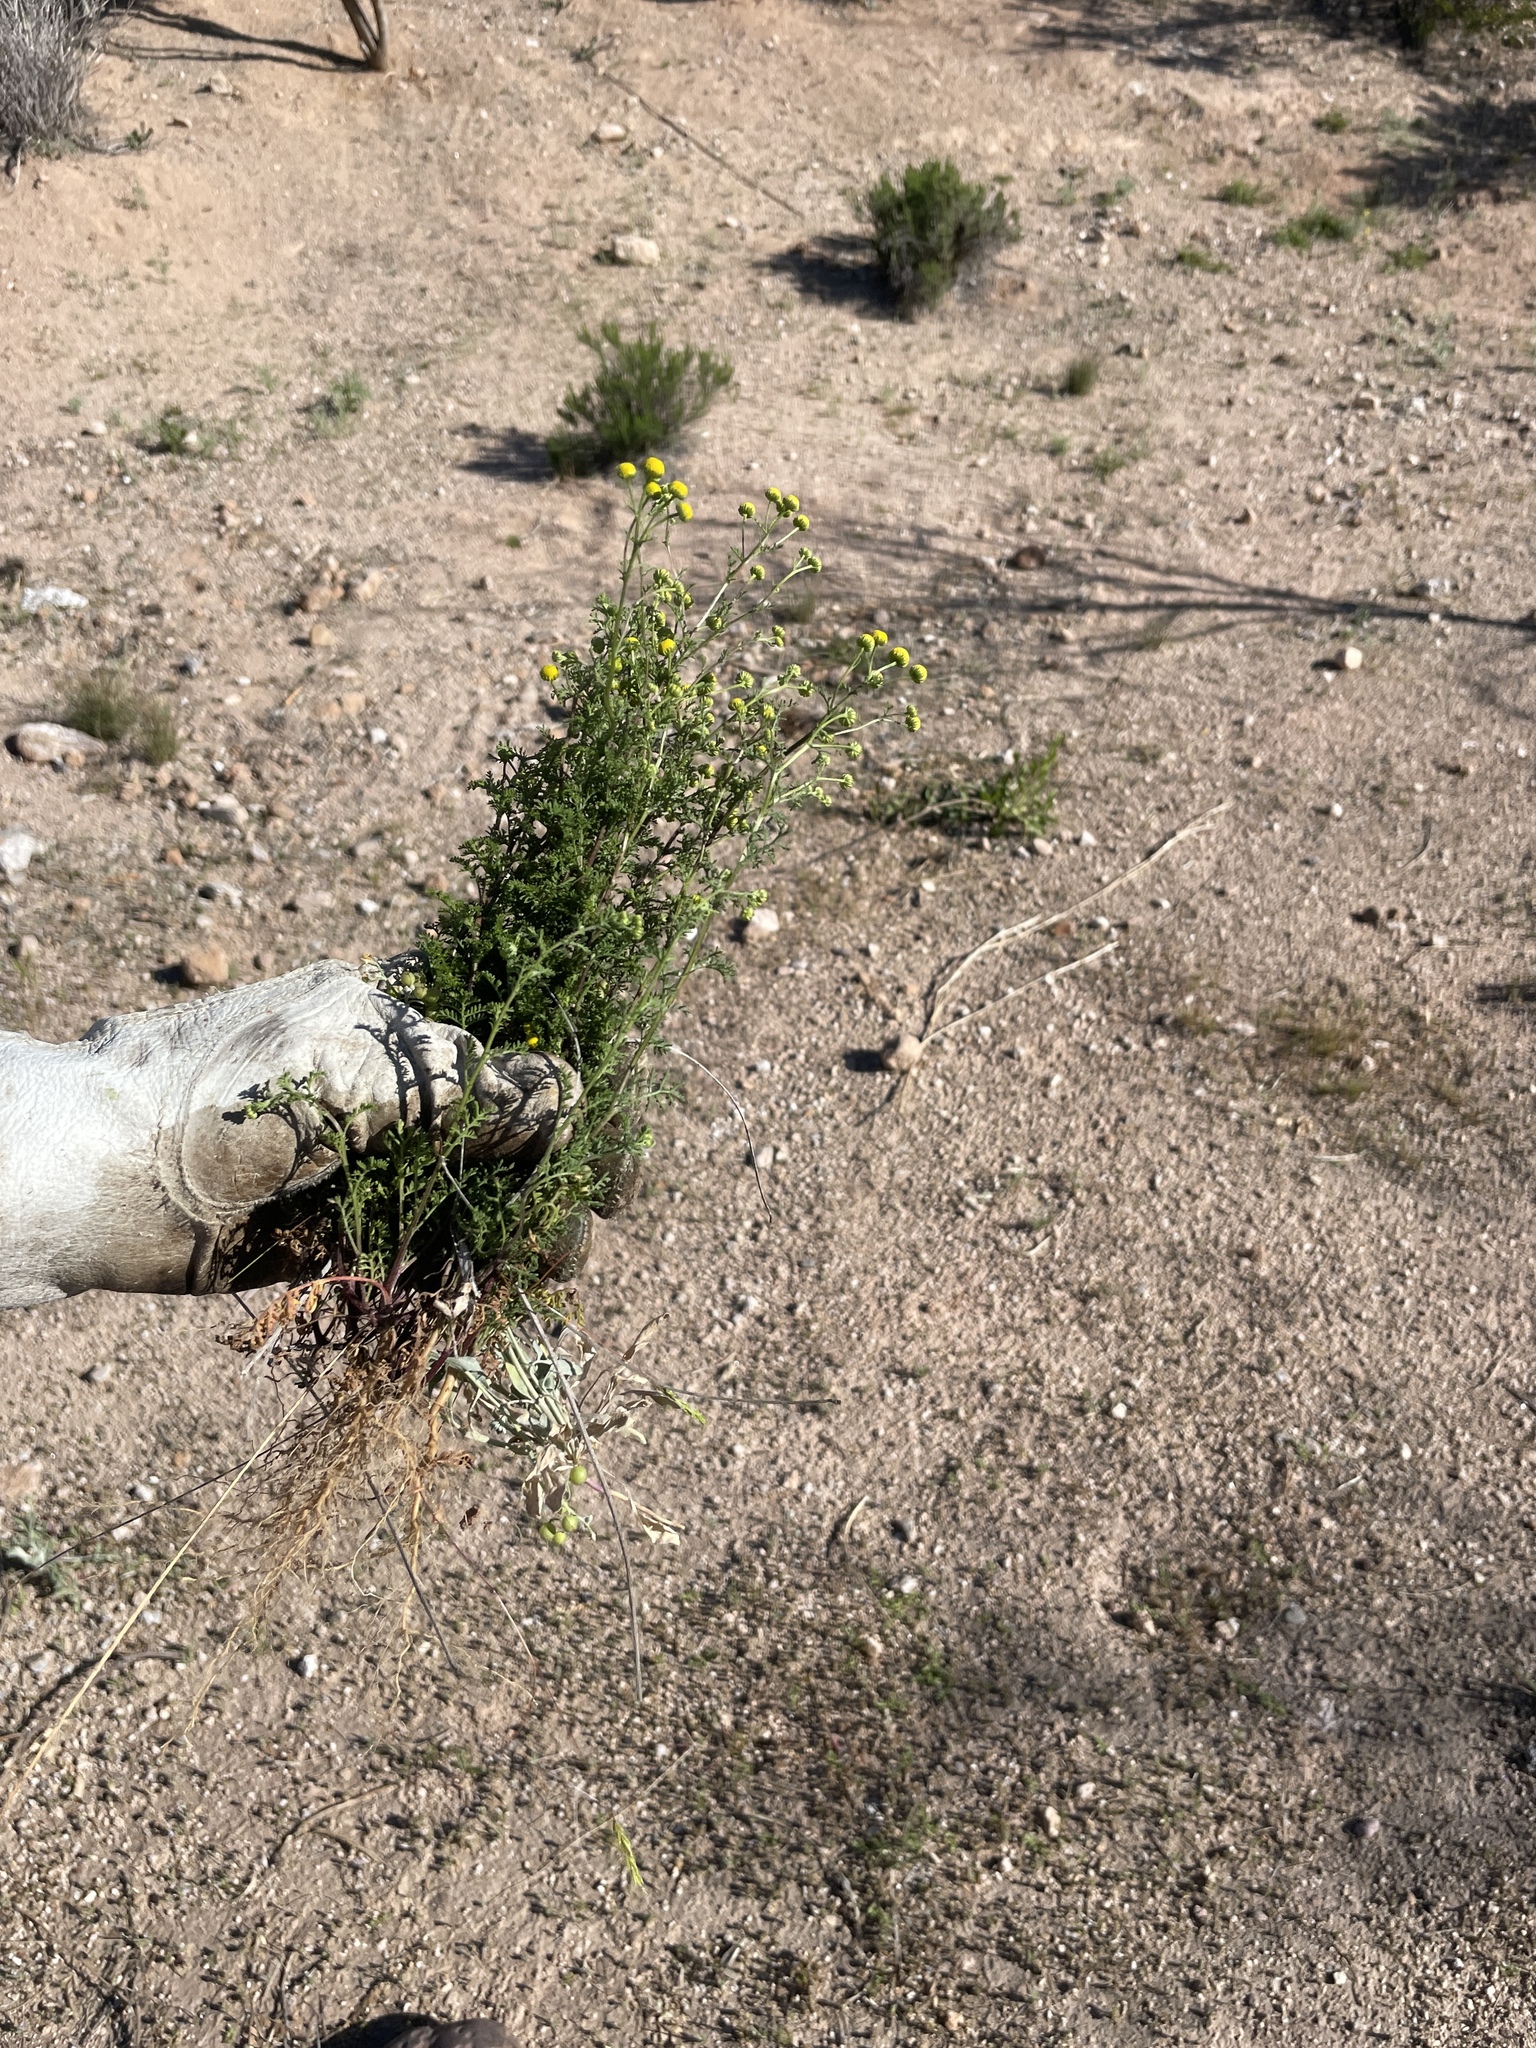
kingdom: Plantae
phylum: Tracheophyta
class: Magnoliopsida
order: Asterales
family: Asteraceae
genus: Oncosiphon
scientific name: Oncosiphon pilulifer
